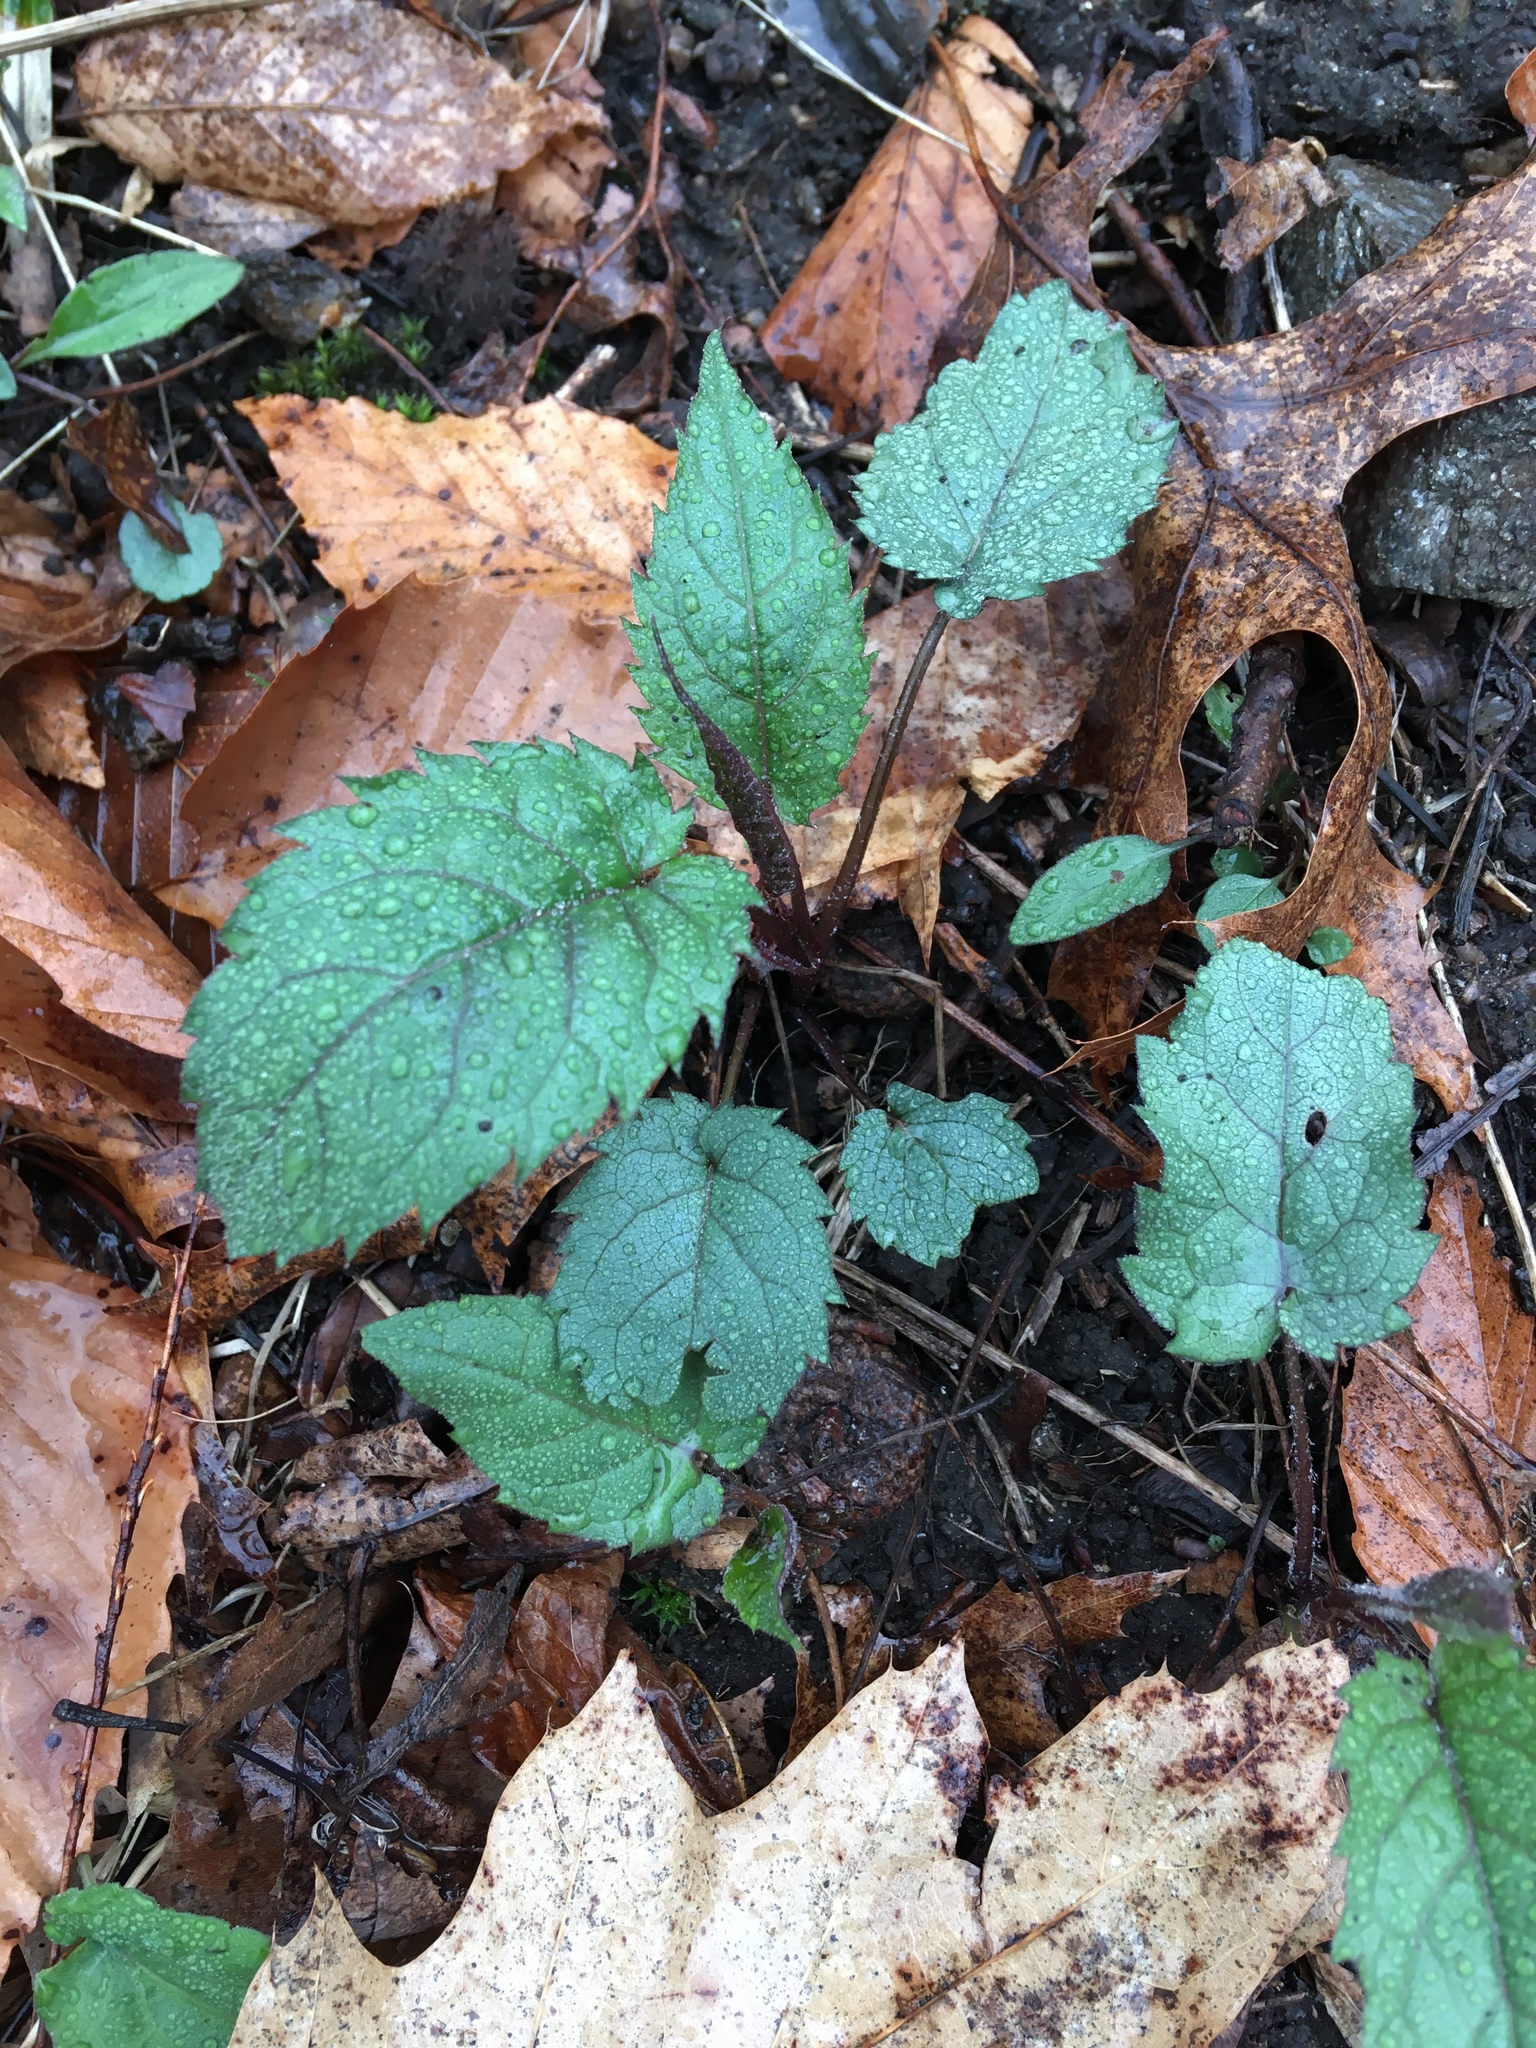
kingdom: Plantae
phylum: Tracheophyta
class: Magnoliopsida
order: Asterales
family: Asteraceae
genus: Eurybia
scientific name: Eurybia divaricata
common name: White wood aster
